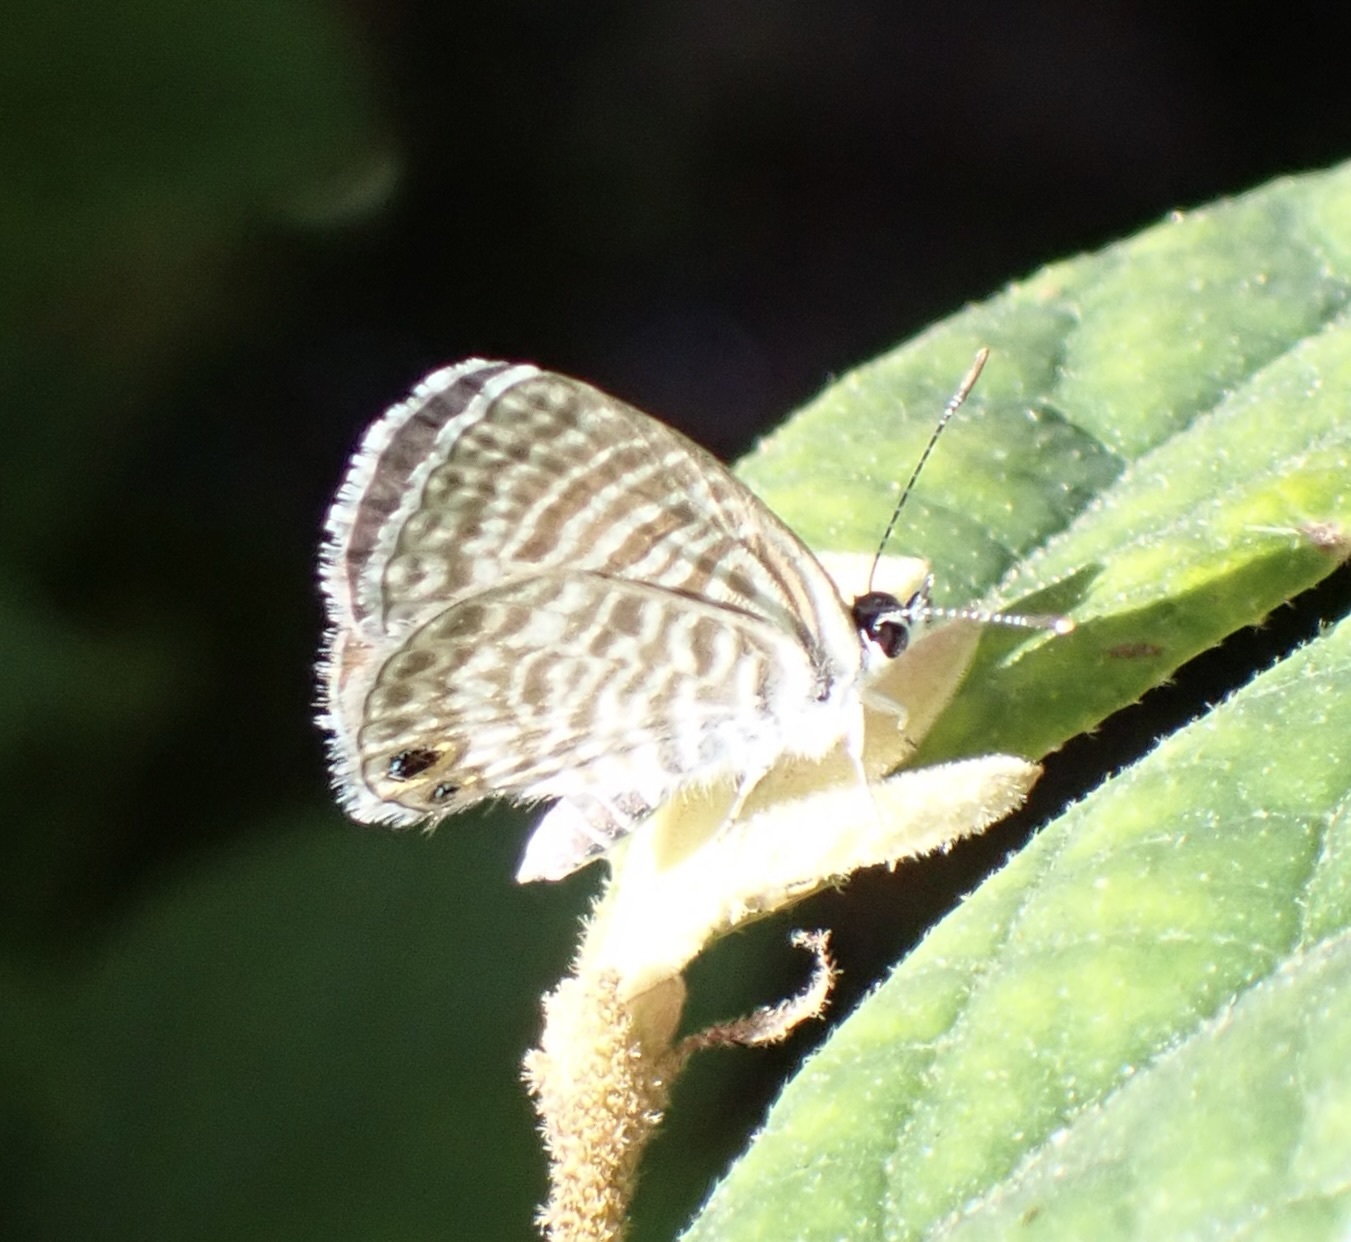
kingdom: Animalia
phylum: Arthropoda
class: Insecta
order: Lepidoptera
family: Lycaenidae
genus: Leptotes
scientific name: Leptotes marina
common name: Marine blue
